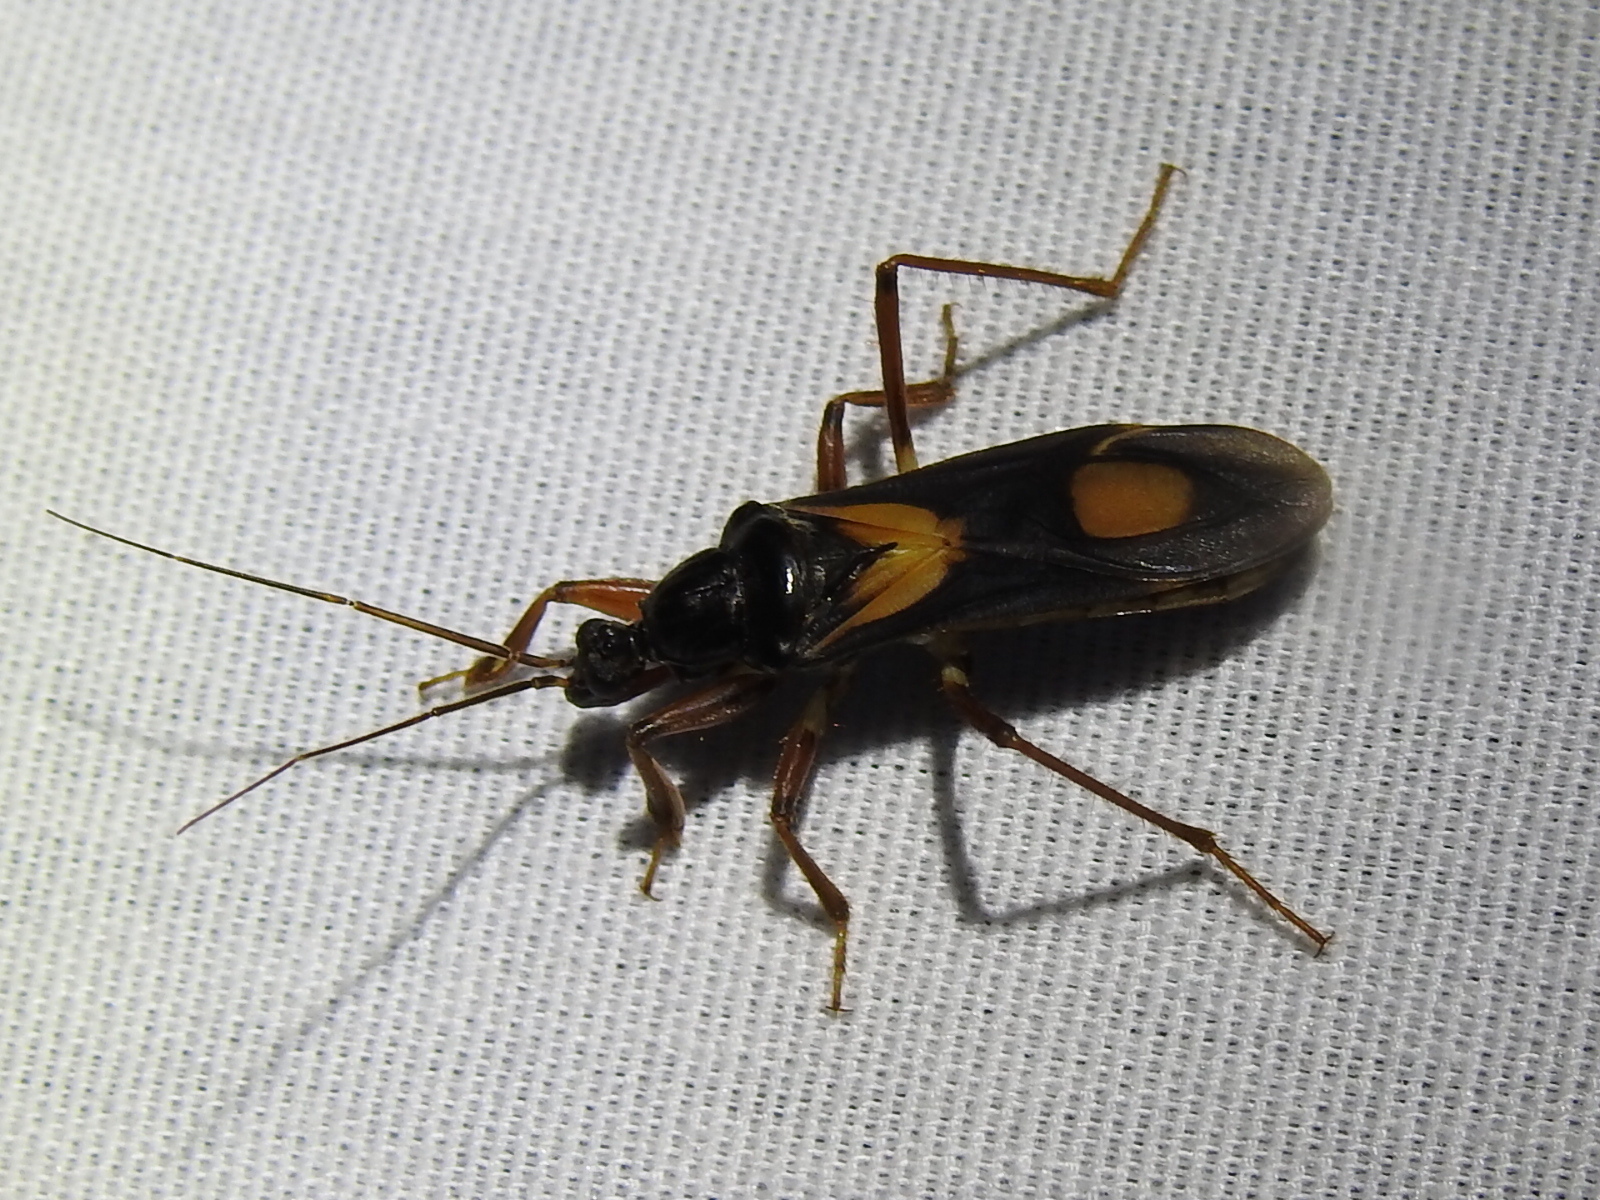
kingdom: Animalia
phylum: Arthropoda
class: Insecta
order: Hemiptera
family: Reduviidae
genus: Rasahus
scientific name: Rasahus hamatus
